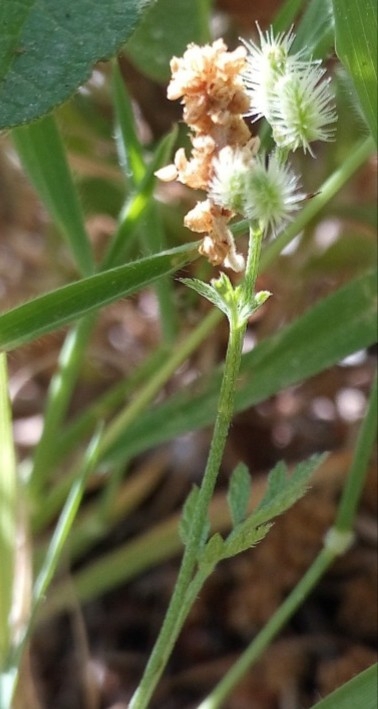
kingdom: Plantae
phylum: Tracheophyta
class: Magnoliopsida
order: Apiales
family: Apiaceae
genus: Torilis
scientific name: Torilis nodosa
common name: Knotted hedge-parsley
